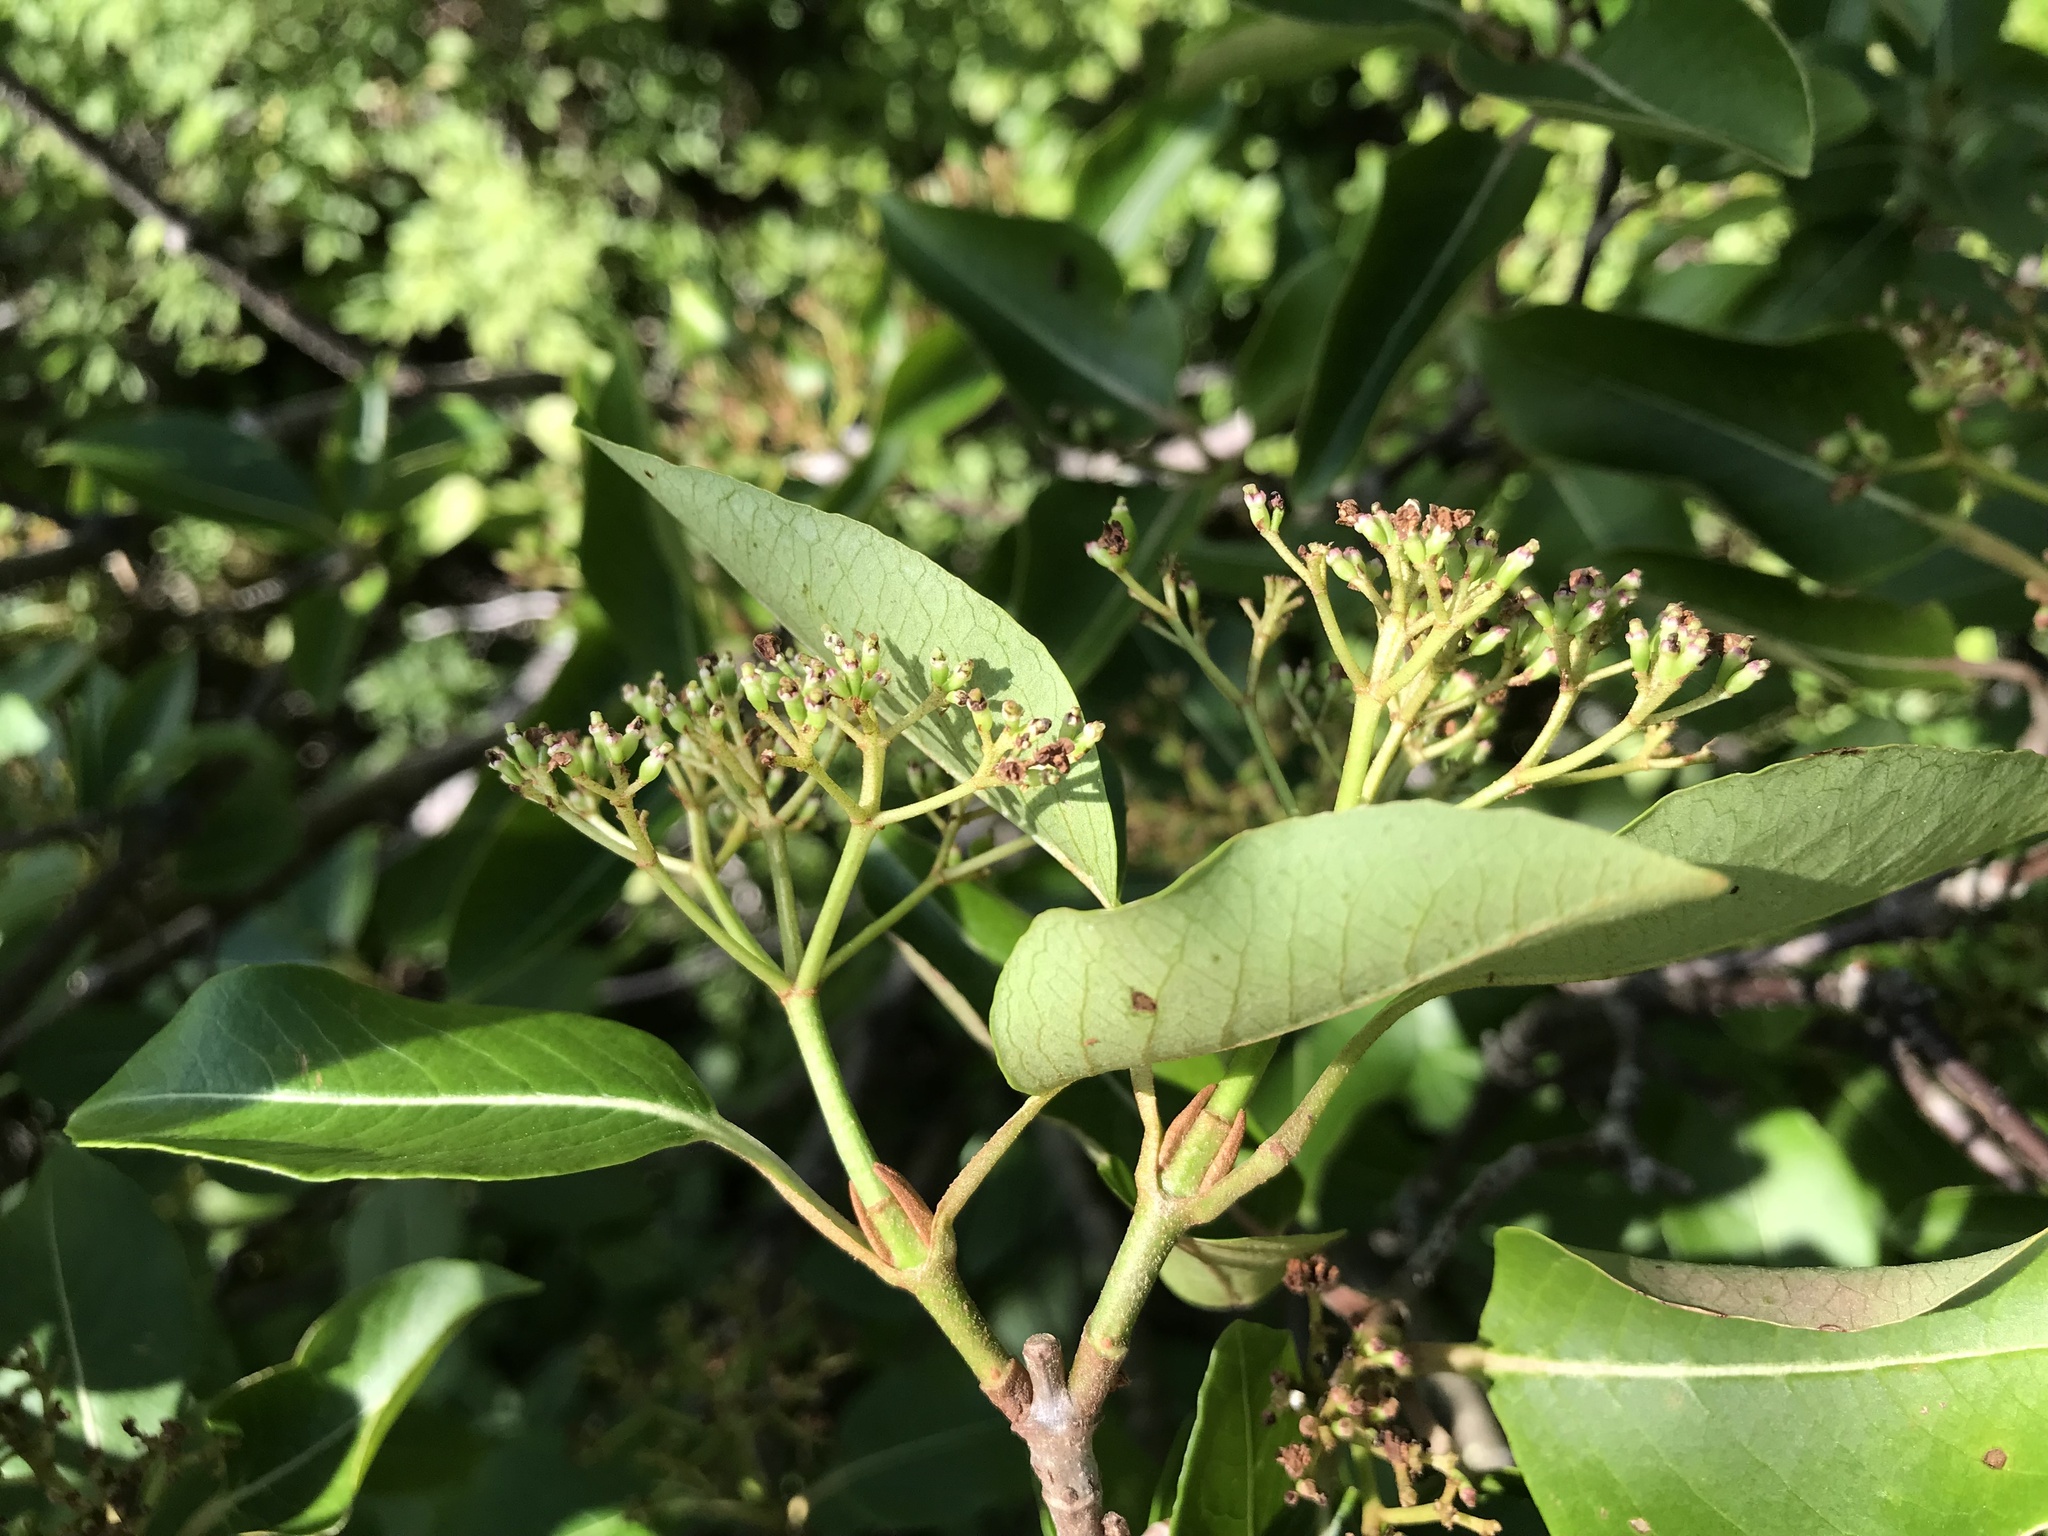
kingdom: Plantae
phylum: Tracheophyta
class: Magnoliopsida
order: Dipsacales
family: Viburnaceae
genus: Viburnum
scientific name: Viburnum cassinoides
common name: Swamp haw
